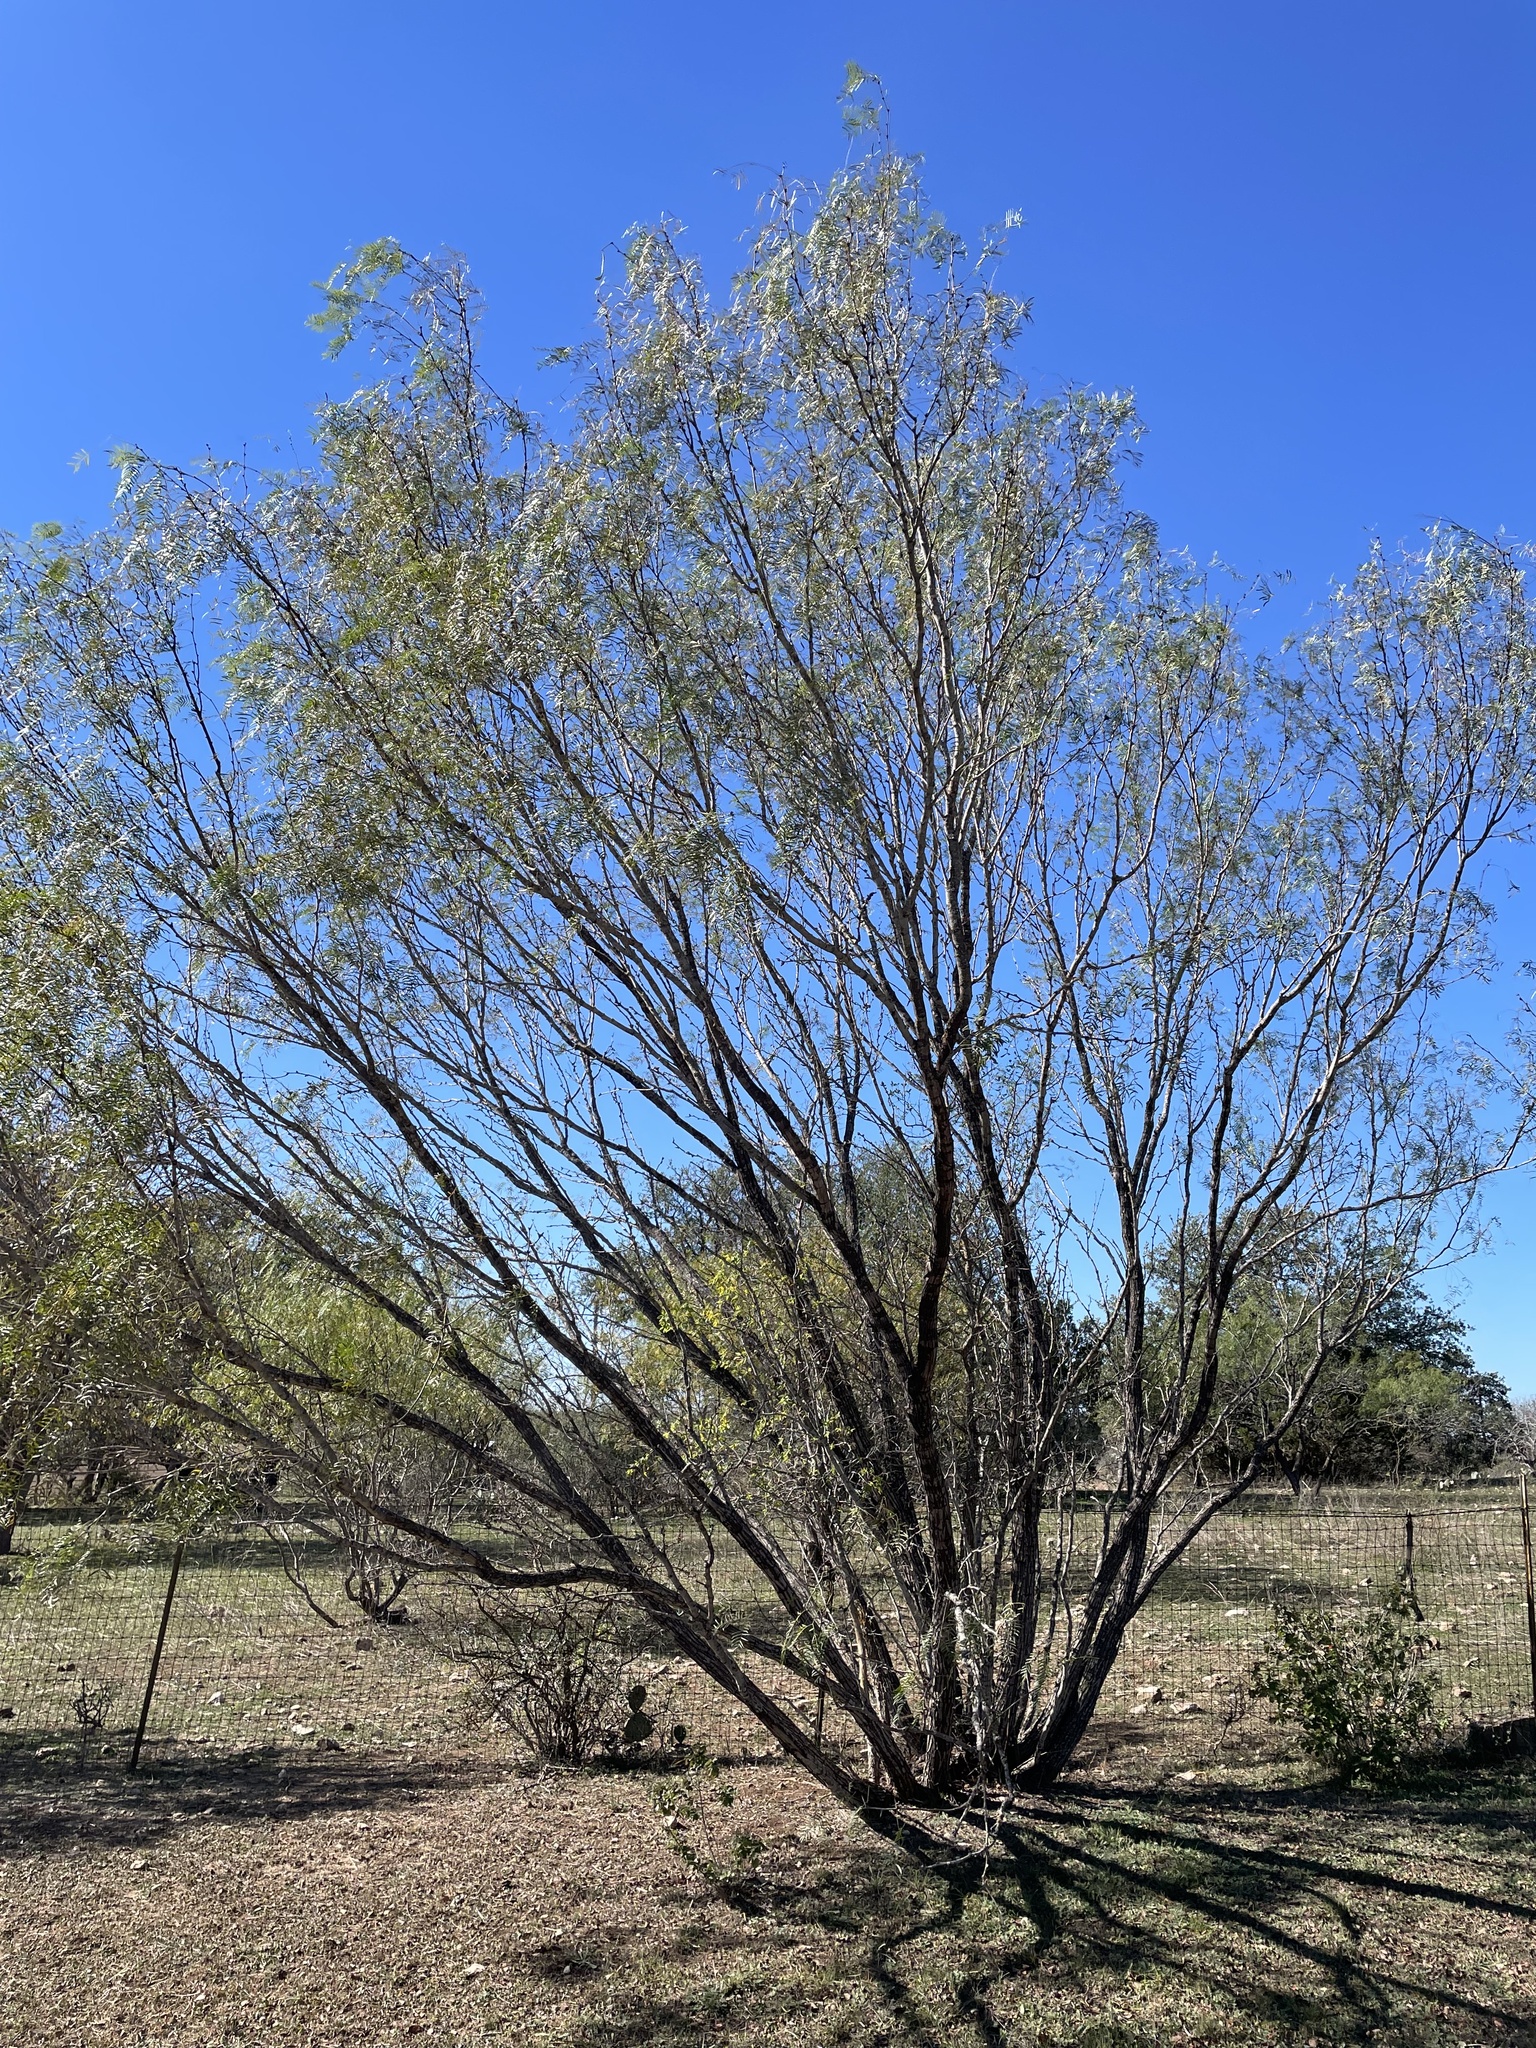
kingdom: Plantae
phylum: Tracheophyta
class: Magnoliopsida
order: Fabales
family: Fabaceae
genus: Prosopis
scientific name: Prosopis glandulosa
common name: Honey mesquite
